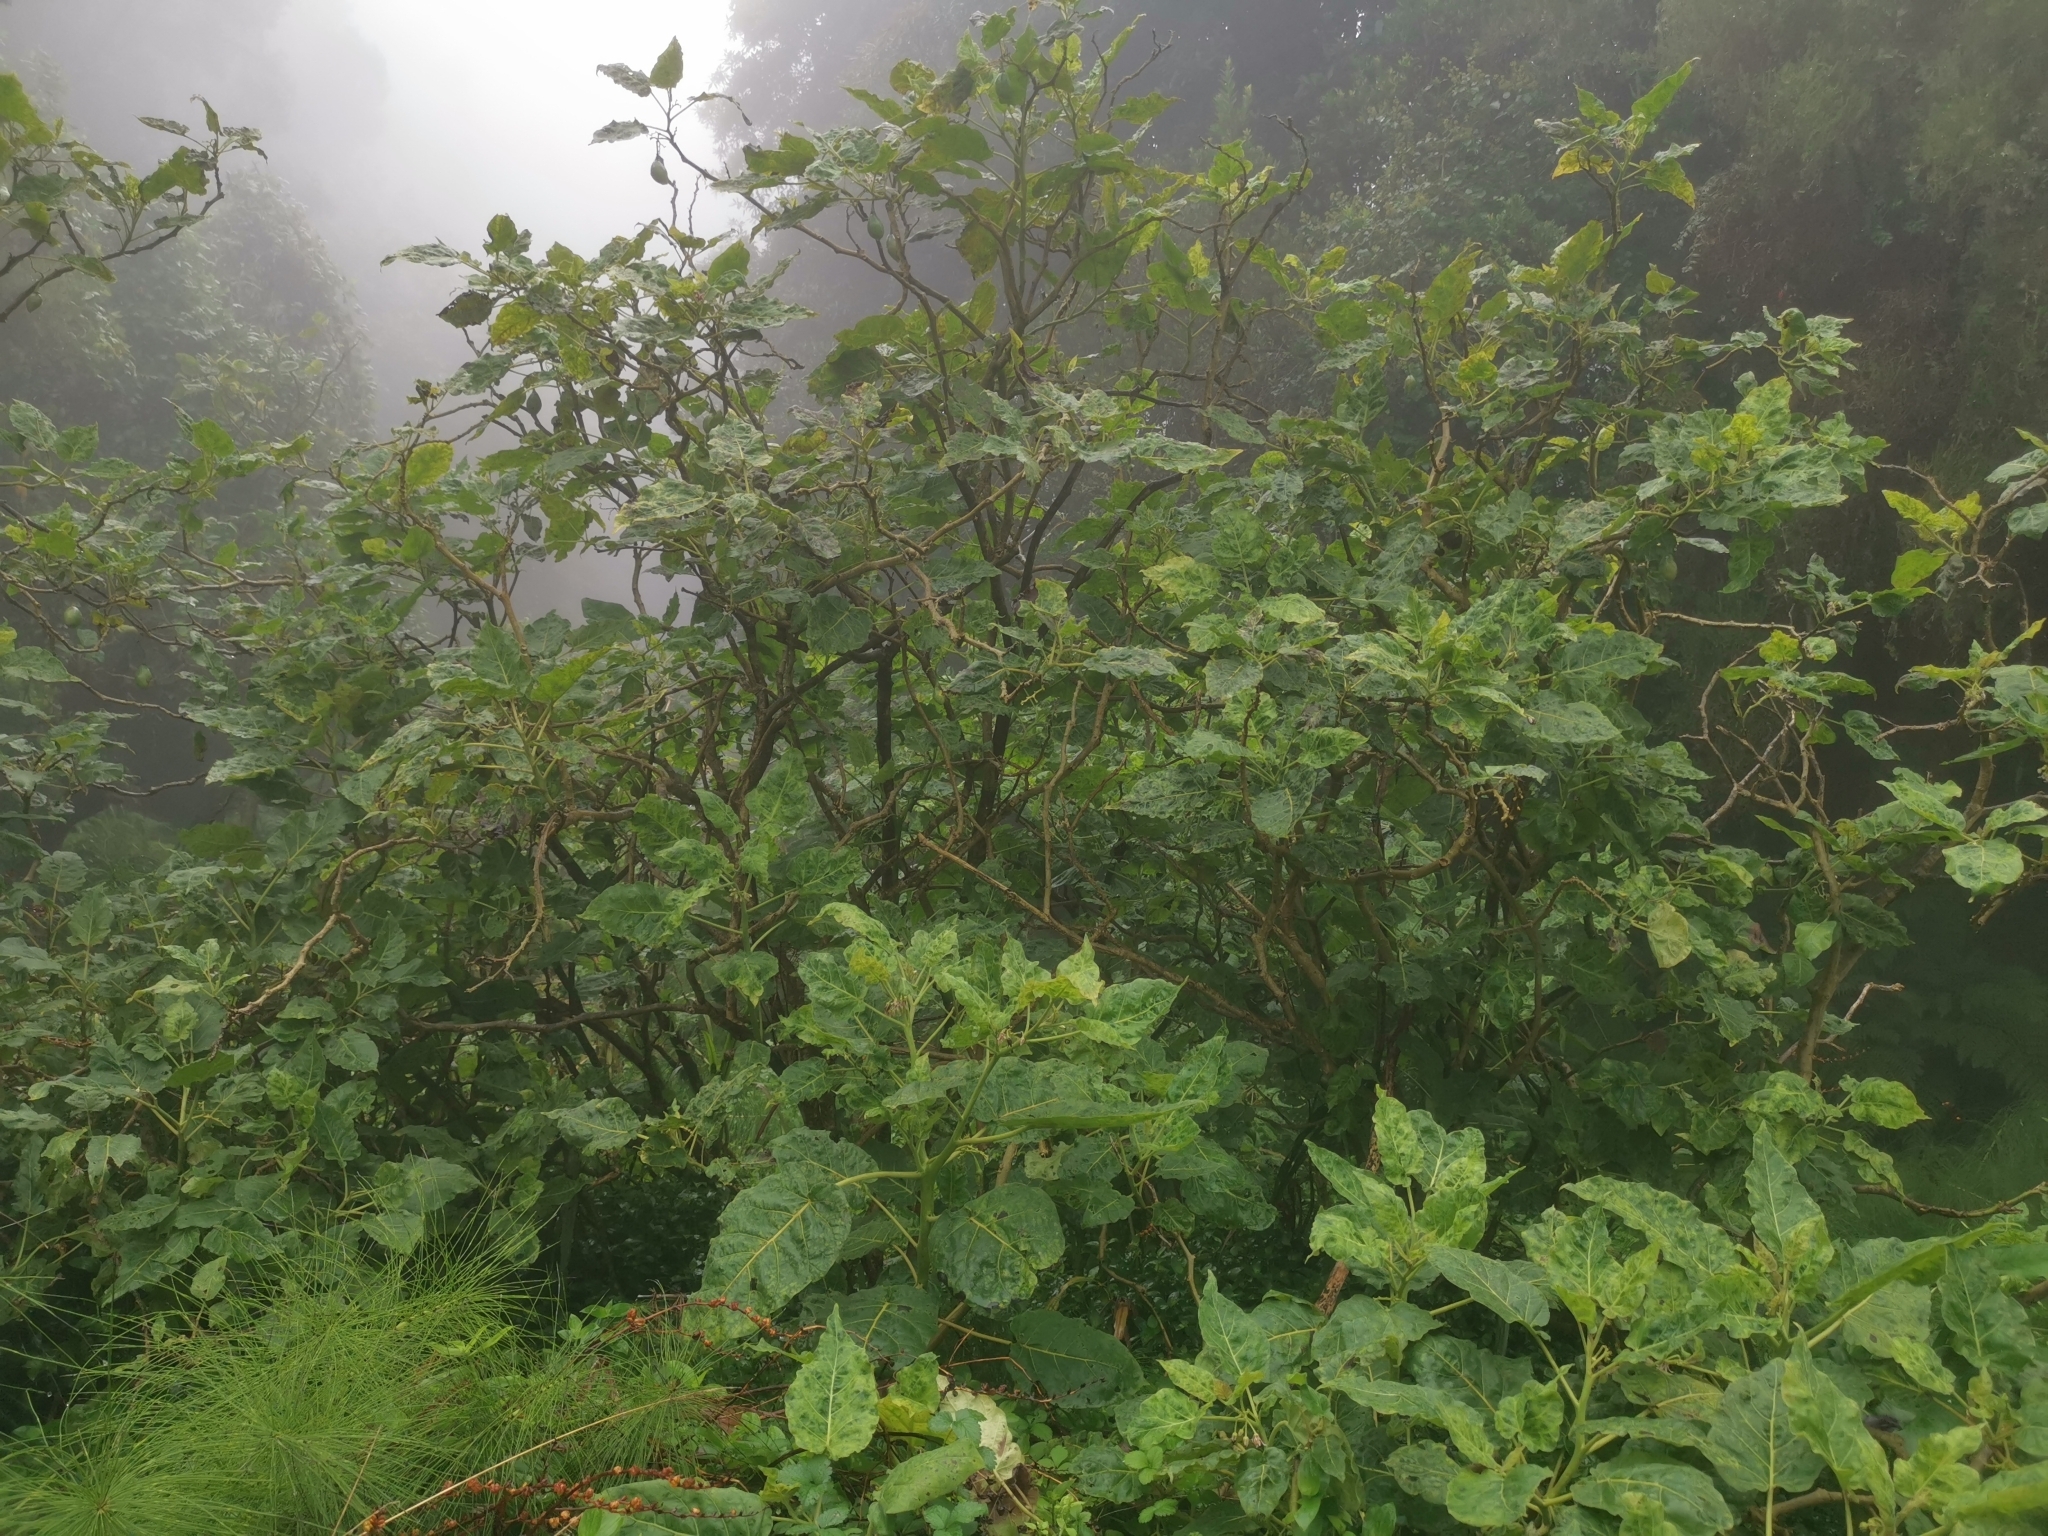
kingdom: Plantae
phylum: Tracheophyta
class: Magnoliopsida
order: Solanales
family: Solanaceae
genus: Solanum
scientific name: Solanum betaceum
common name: Tamarillo
